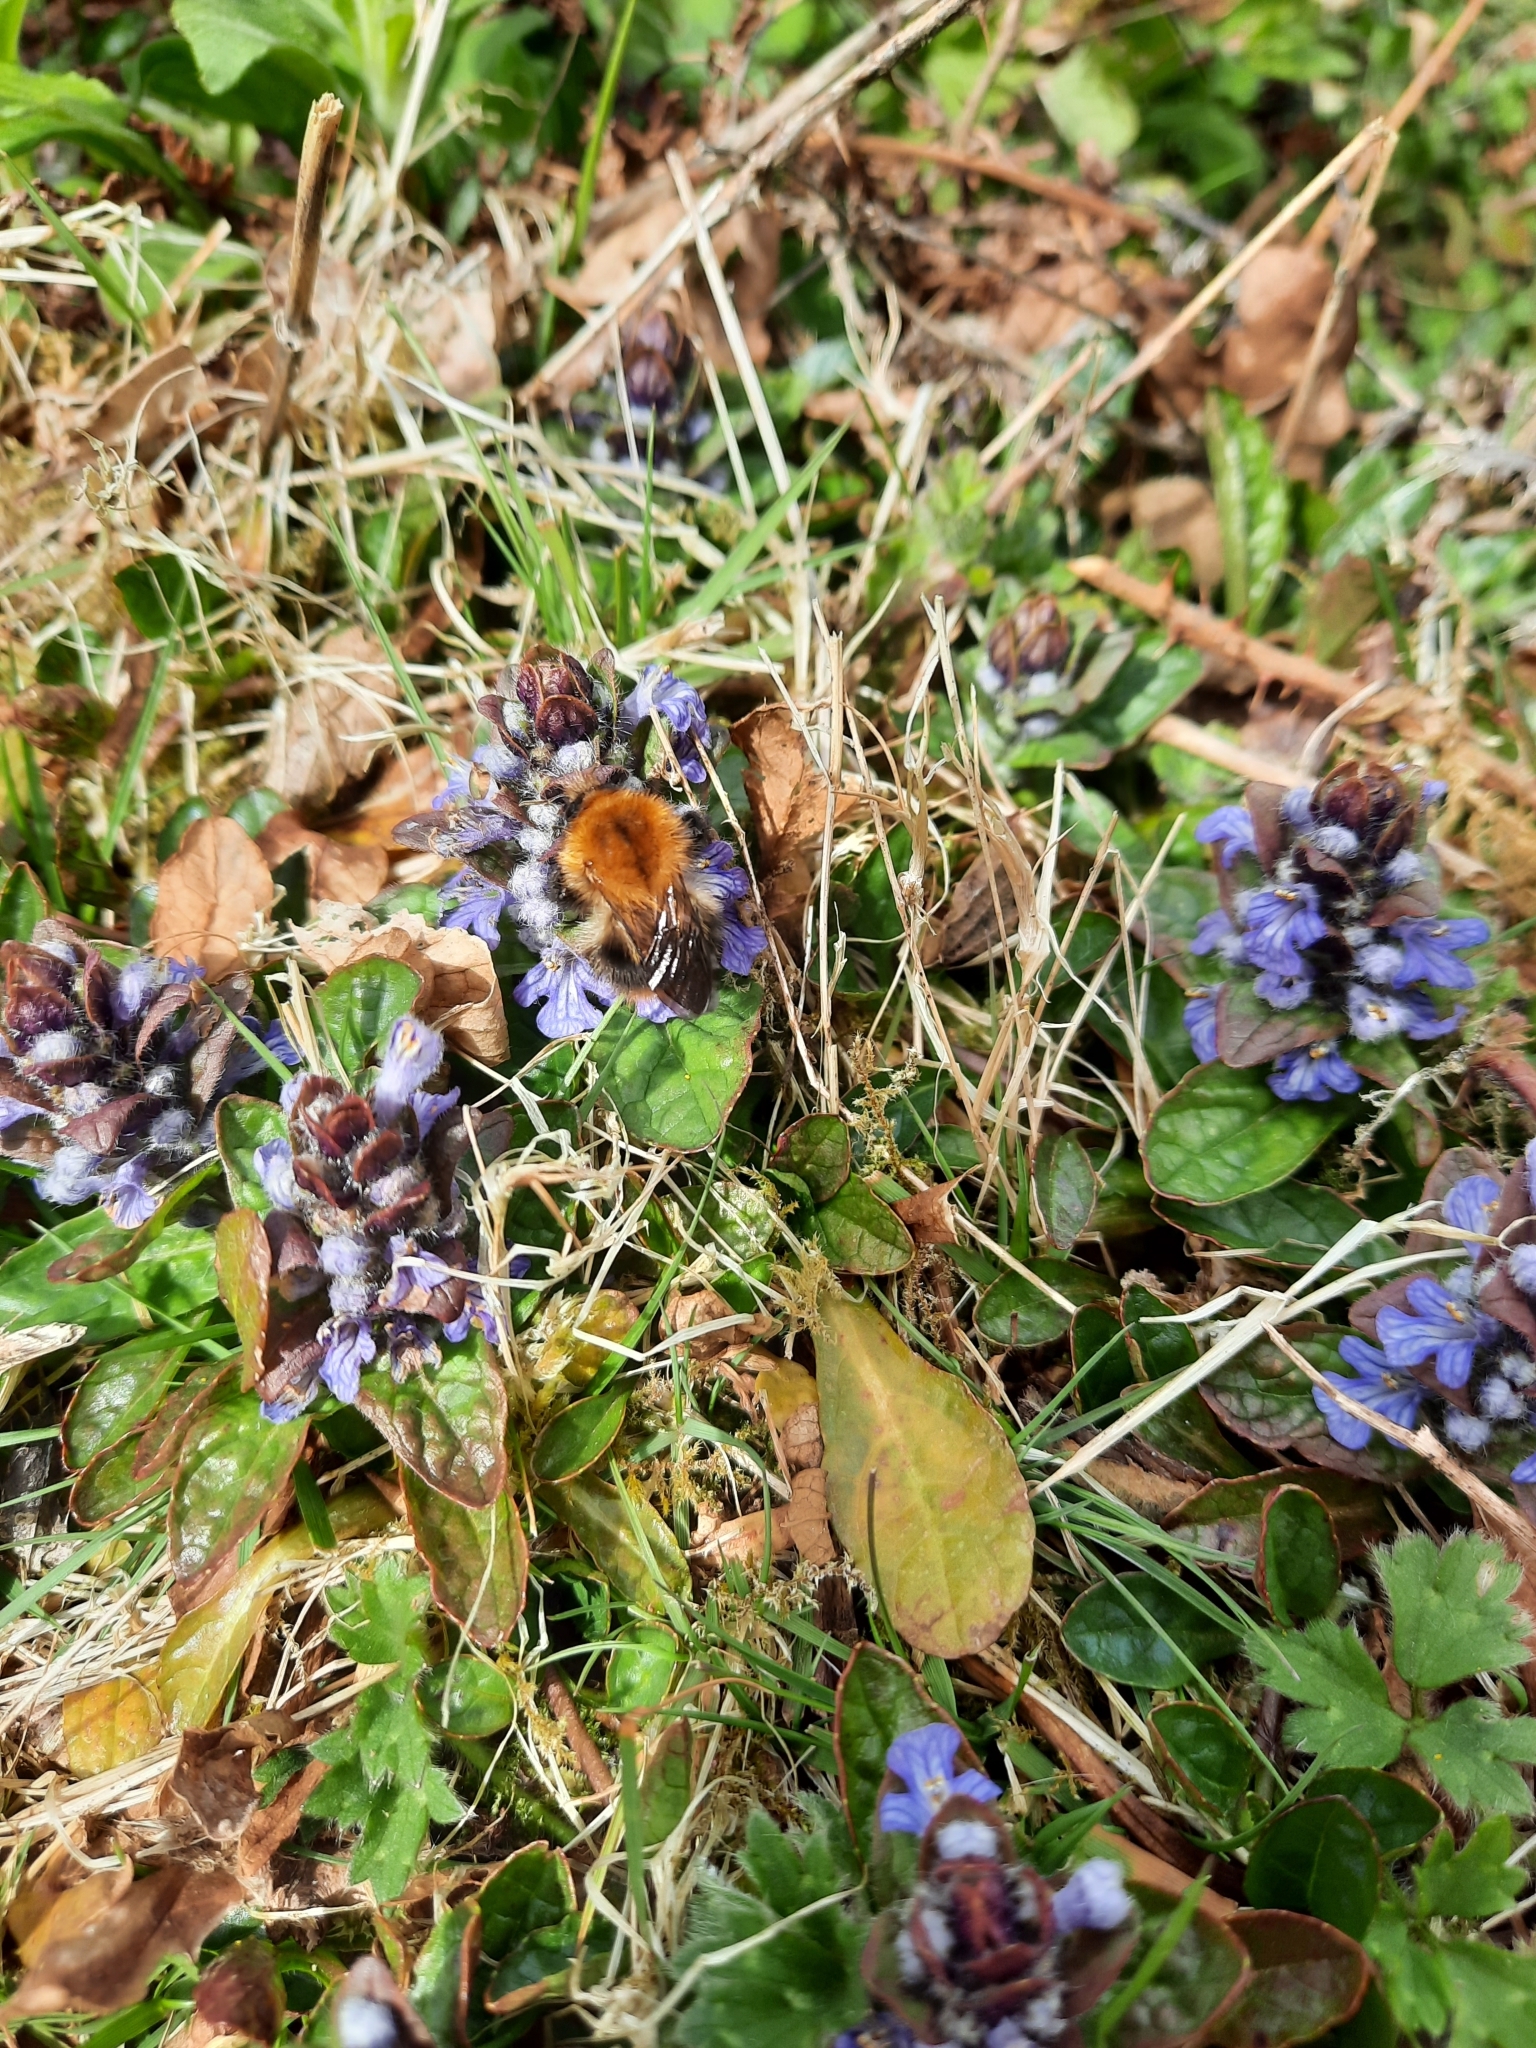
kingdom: Plantae
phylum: Tracheophyta
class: Magnoliopsida
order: Lamiales
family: Lamiaceae
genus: Ajuga
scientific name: Ajuga reptans
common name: Bugle
